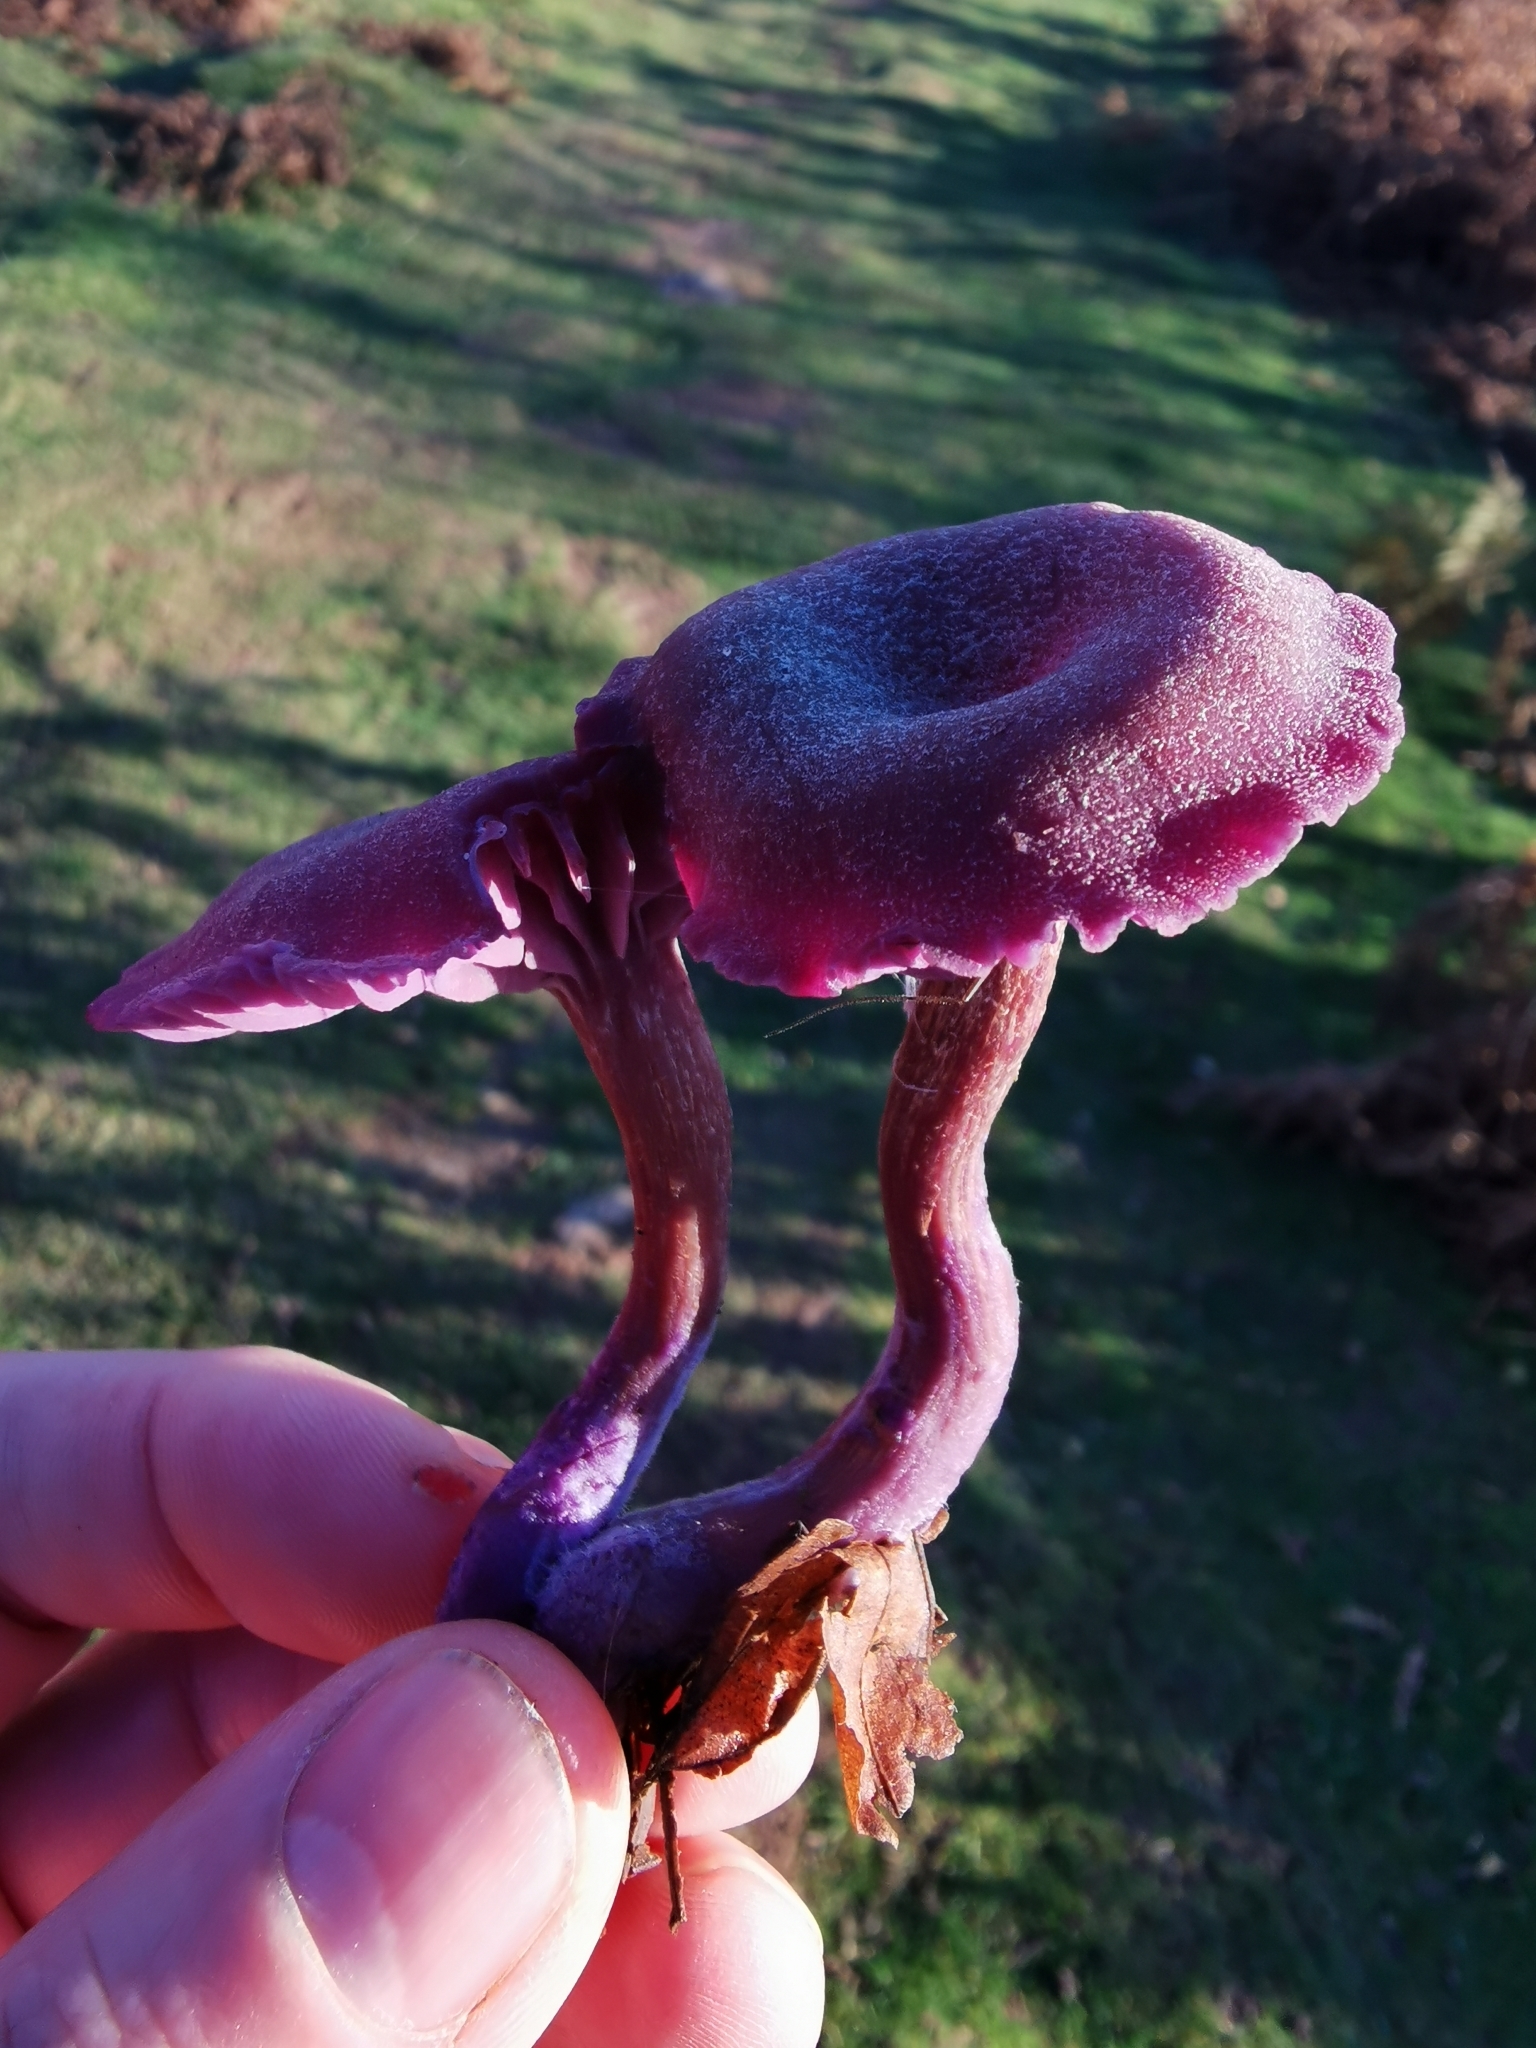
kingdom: Fungi
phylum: Basidiomycota
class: Agaricomycetes
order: Agaricales
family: Hydnangiaceae
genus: Laccaria
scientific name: Laccaria amethystina
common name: Amethyst deceiver
